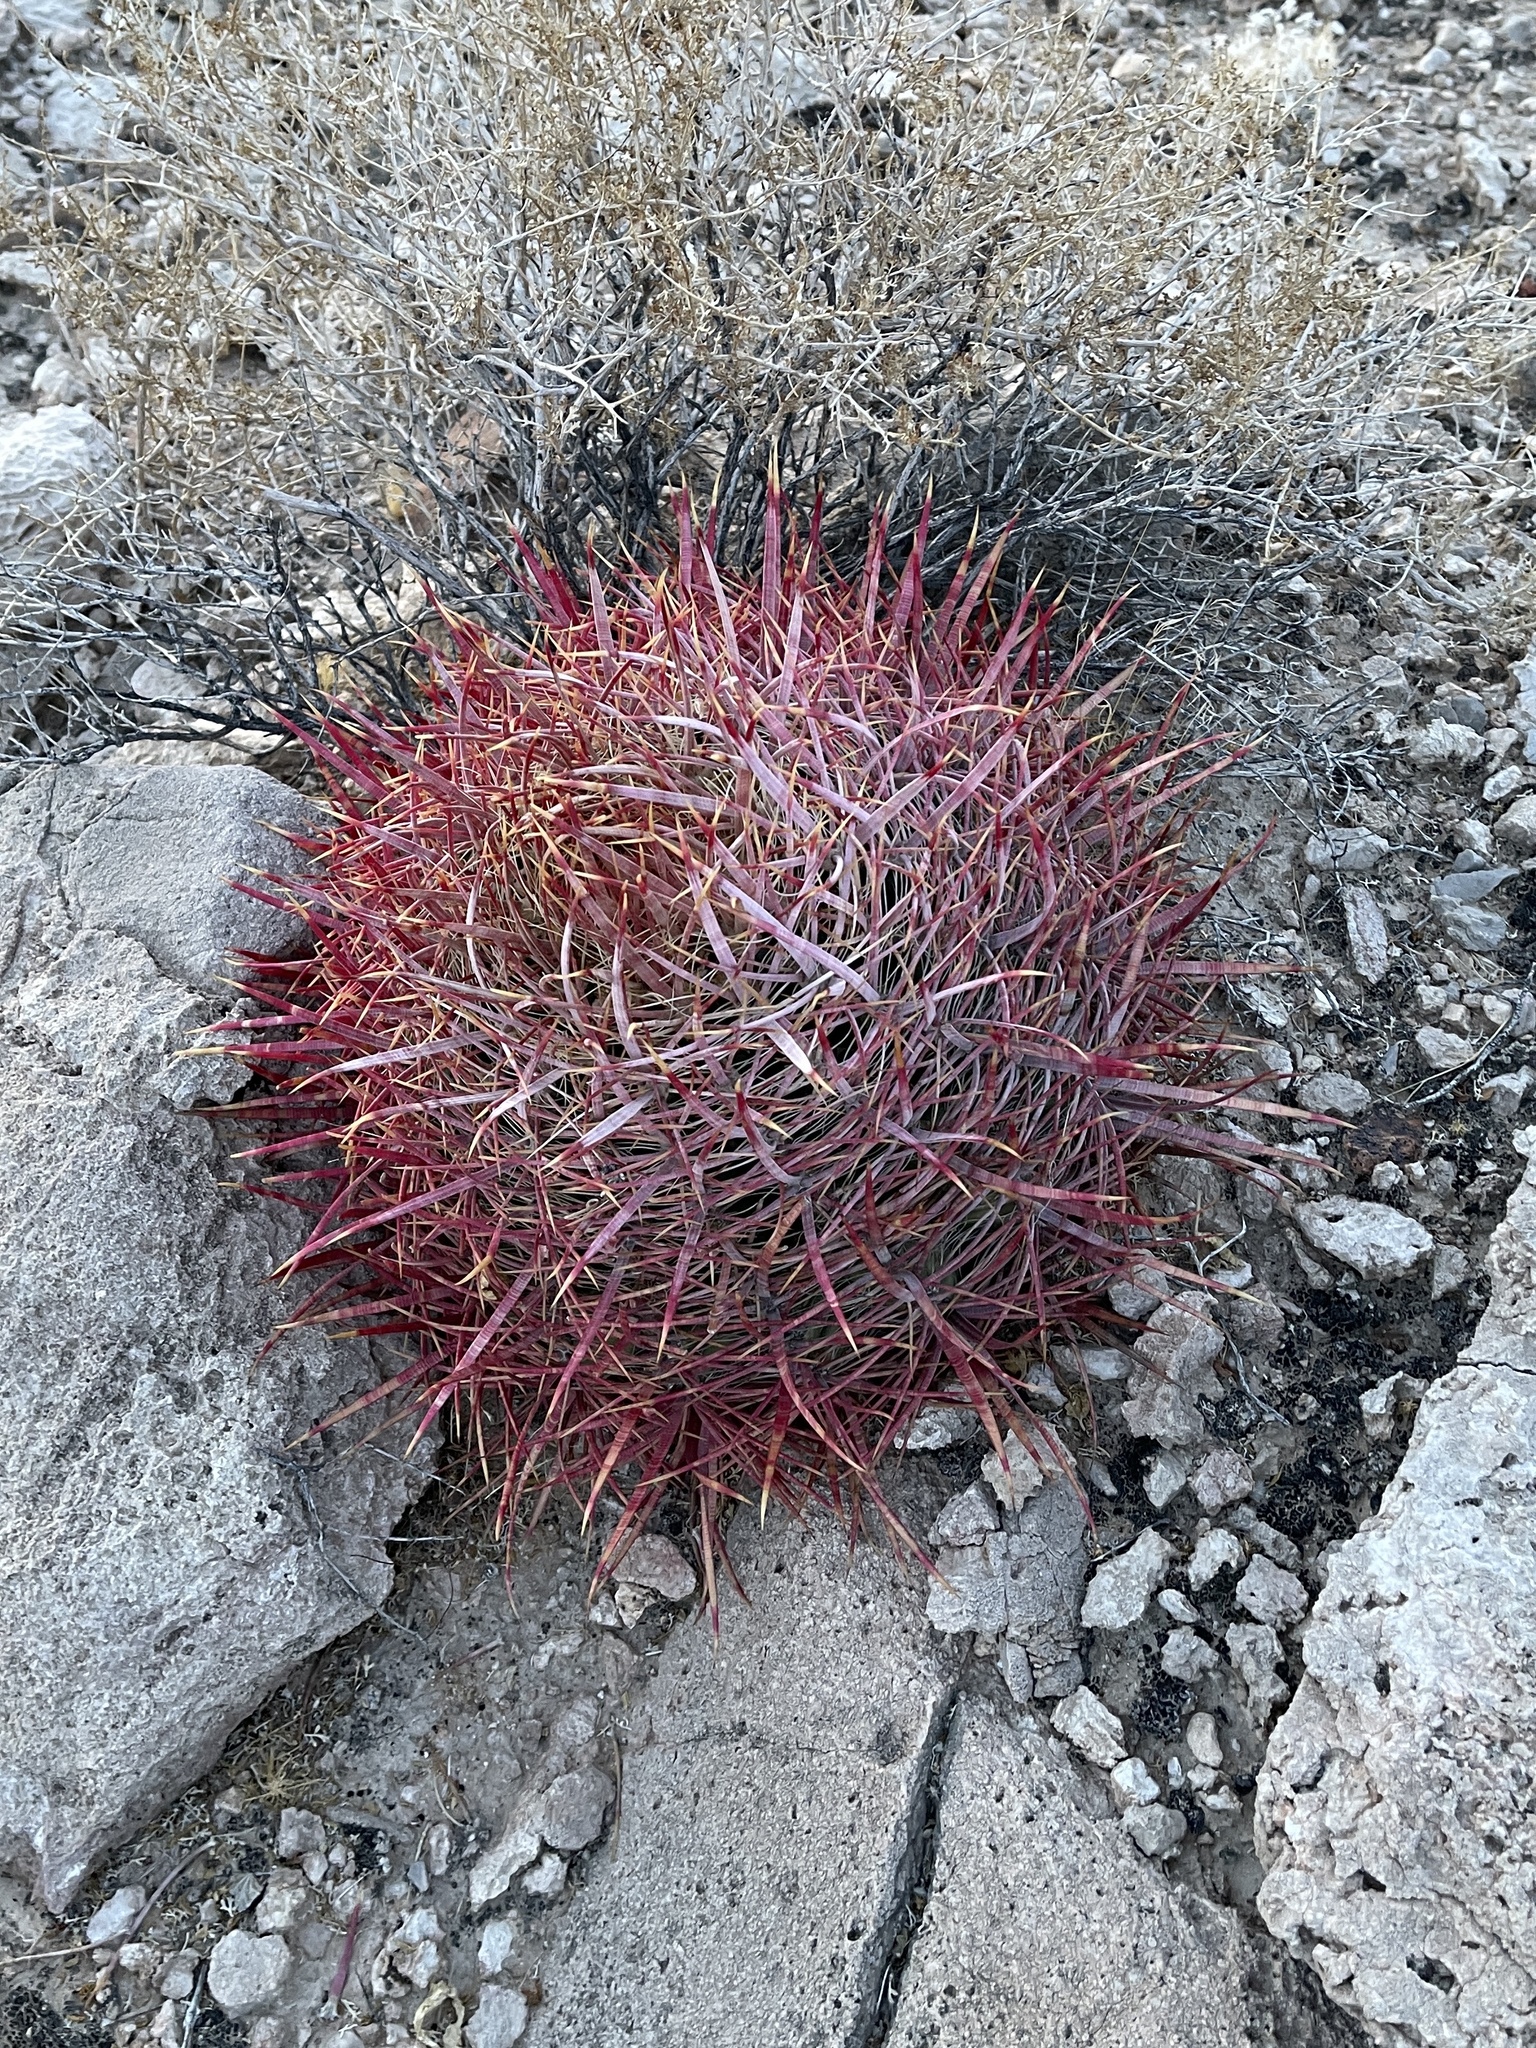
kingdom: Plantae
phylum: Tracheophyta
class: Magnoliopsida
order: Caryophyllales
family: Cactaceae
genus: Ferocactus
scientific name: Ferocactus cylindraceus
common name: California barrel cactus
